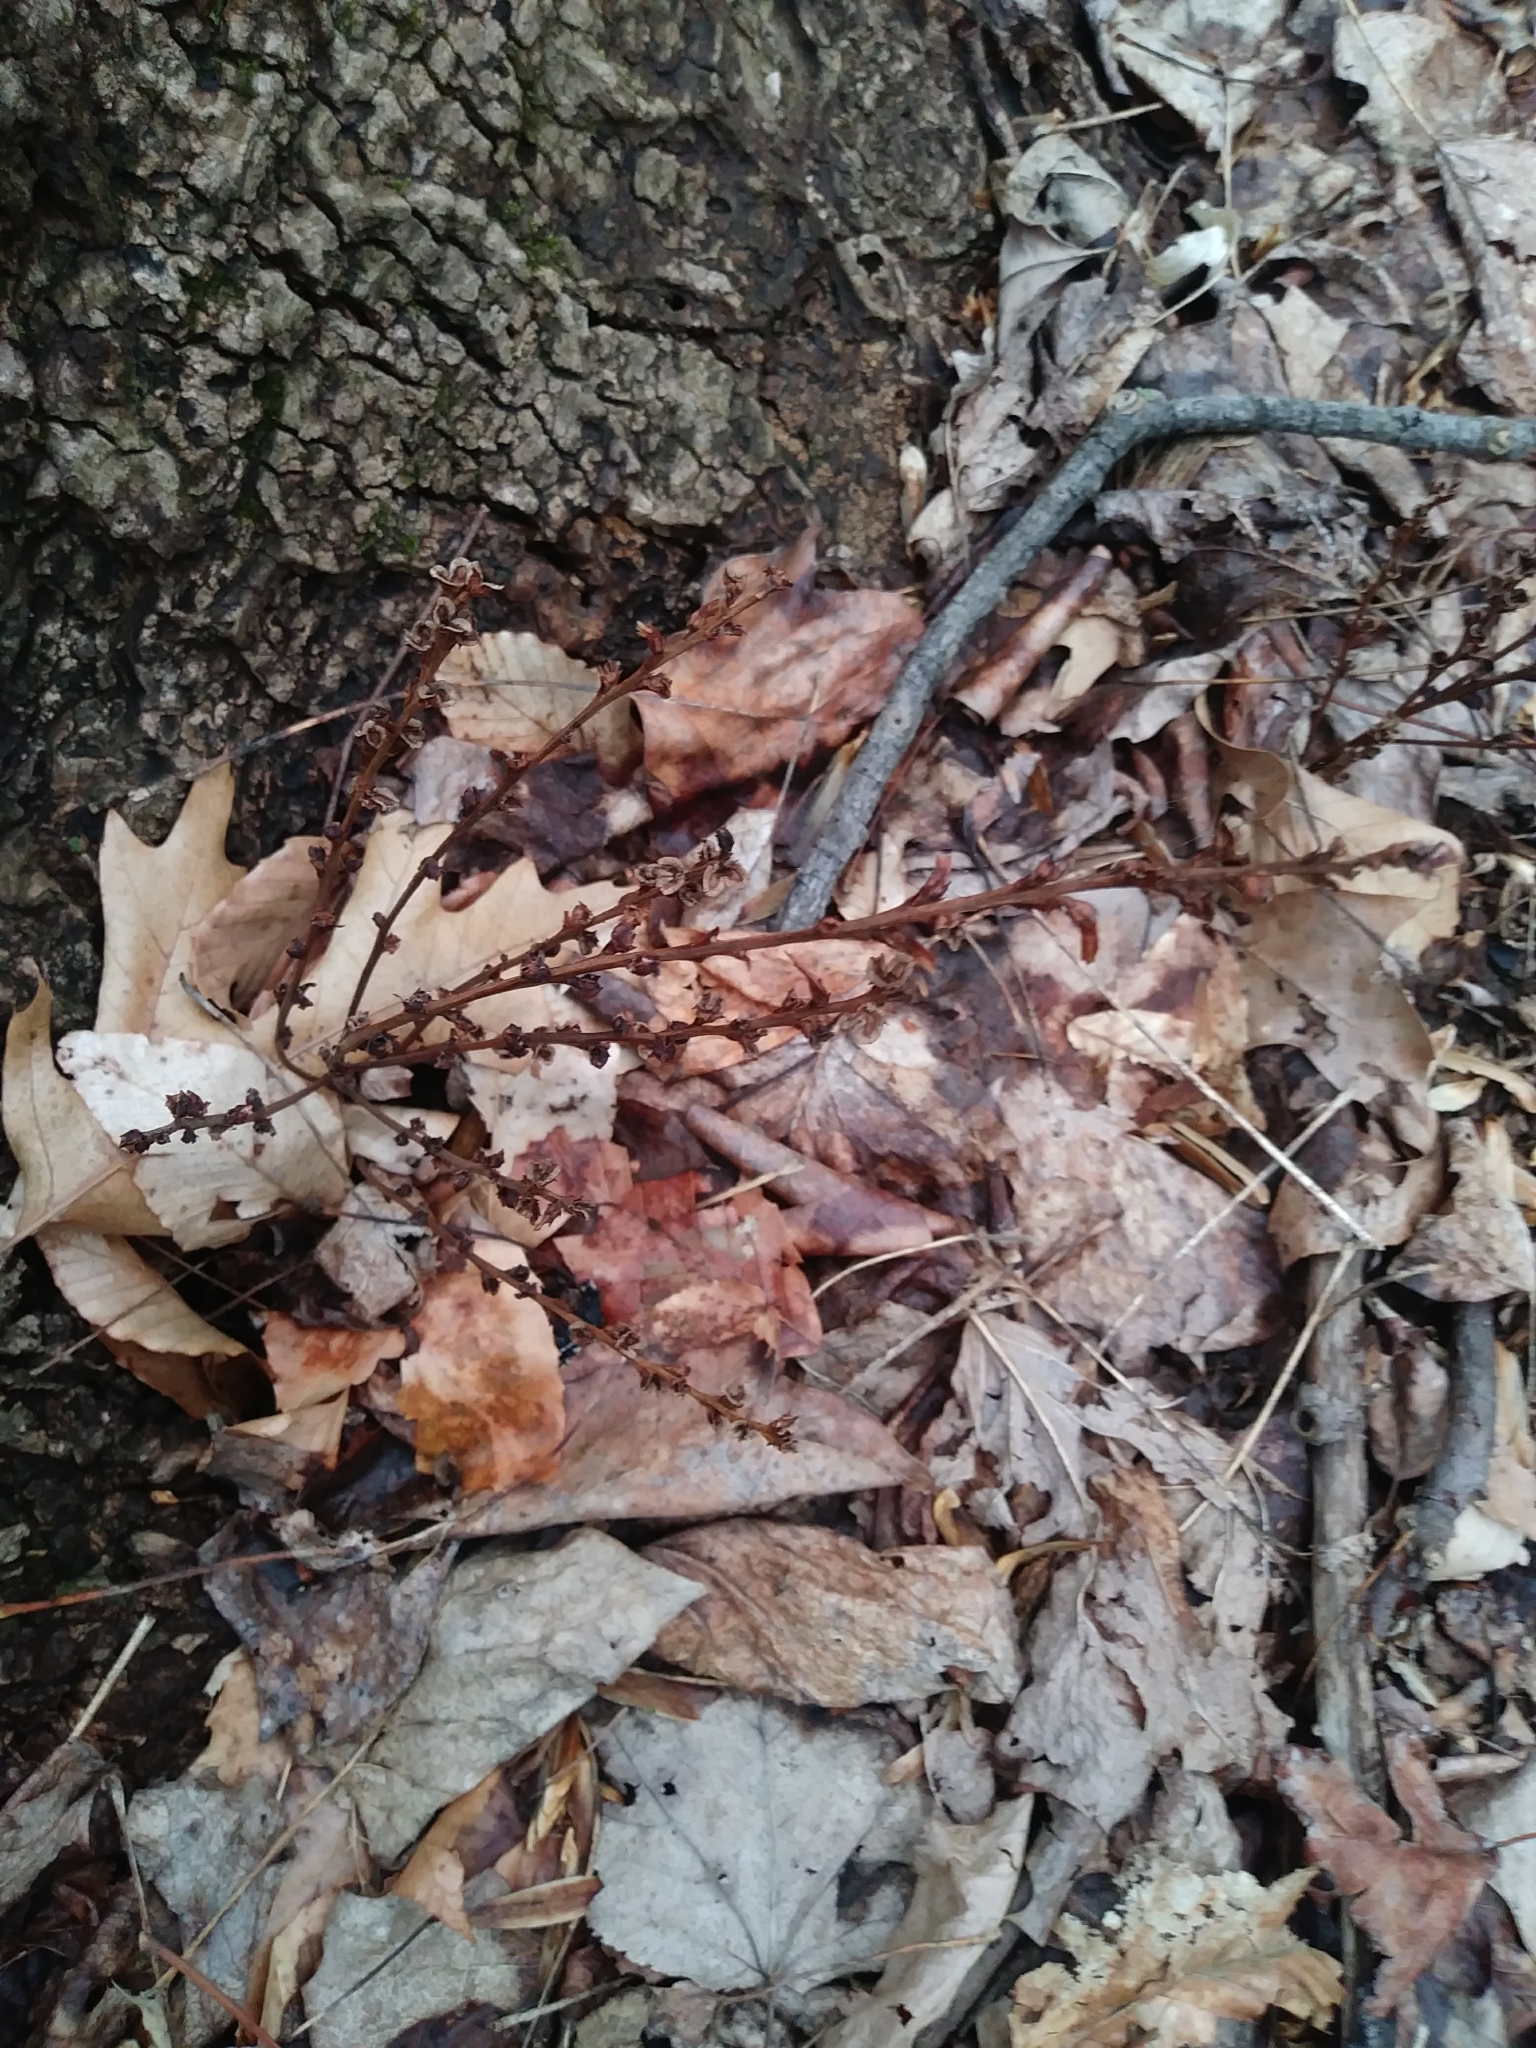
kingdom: Plantae
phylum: Tracheophyta
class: Magnoliopsida
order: Lamiales
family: Orobanchaceae
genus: Epifagus
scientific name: Epifagus virginiana
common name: Beechdrops
